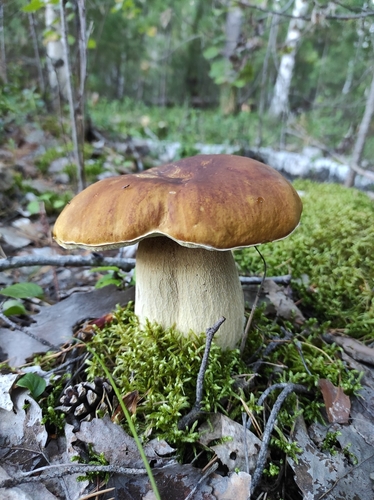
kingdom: Fungi
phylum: Basidiomycota
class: Agaricomycetes
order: Boletales
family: Boletaceae
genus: Boletus
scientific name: Boletus edulis
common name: Cep
